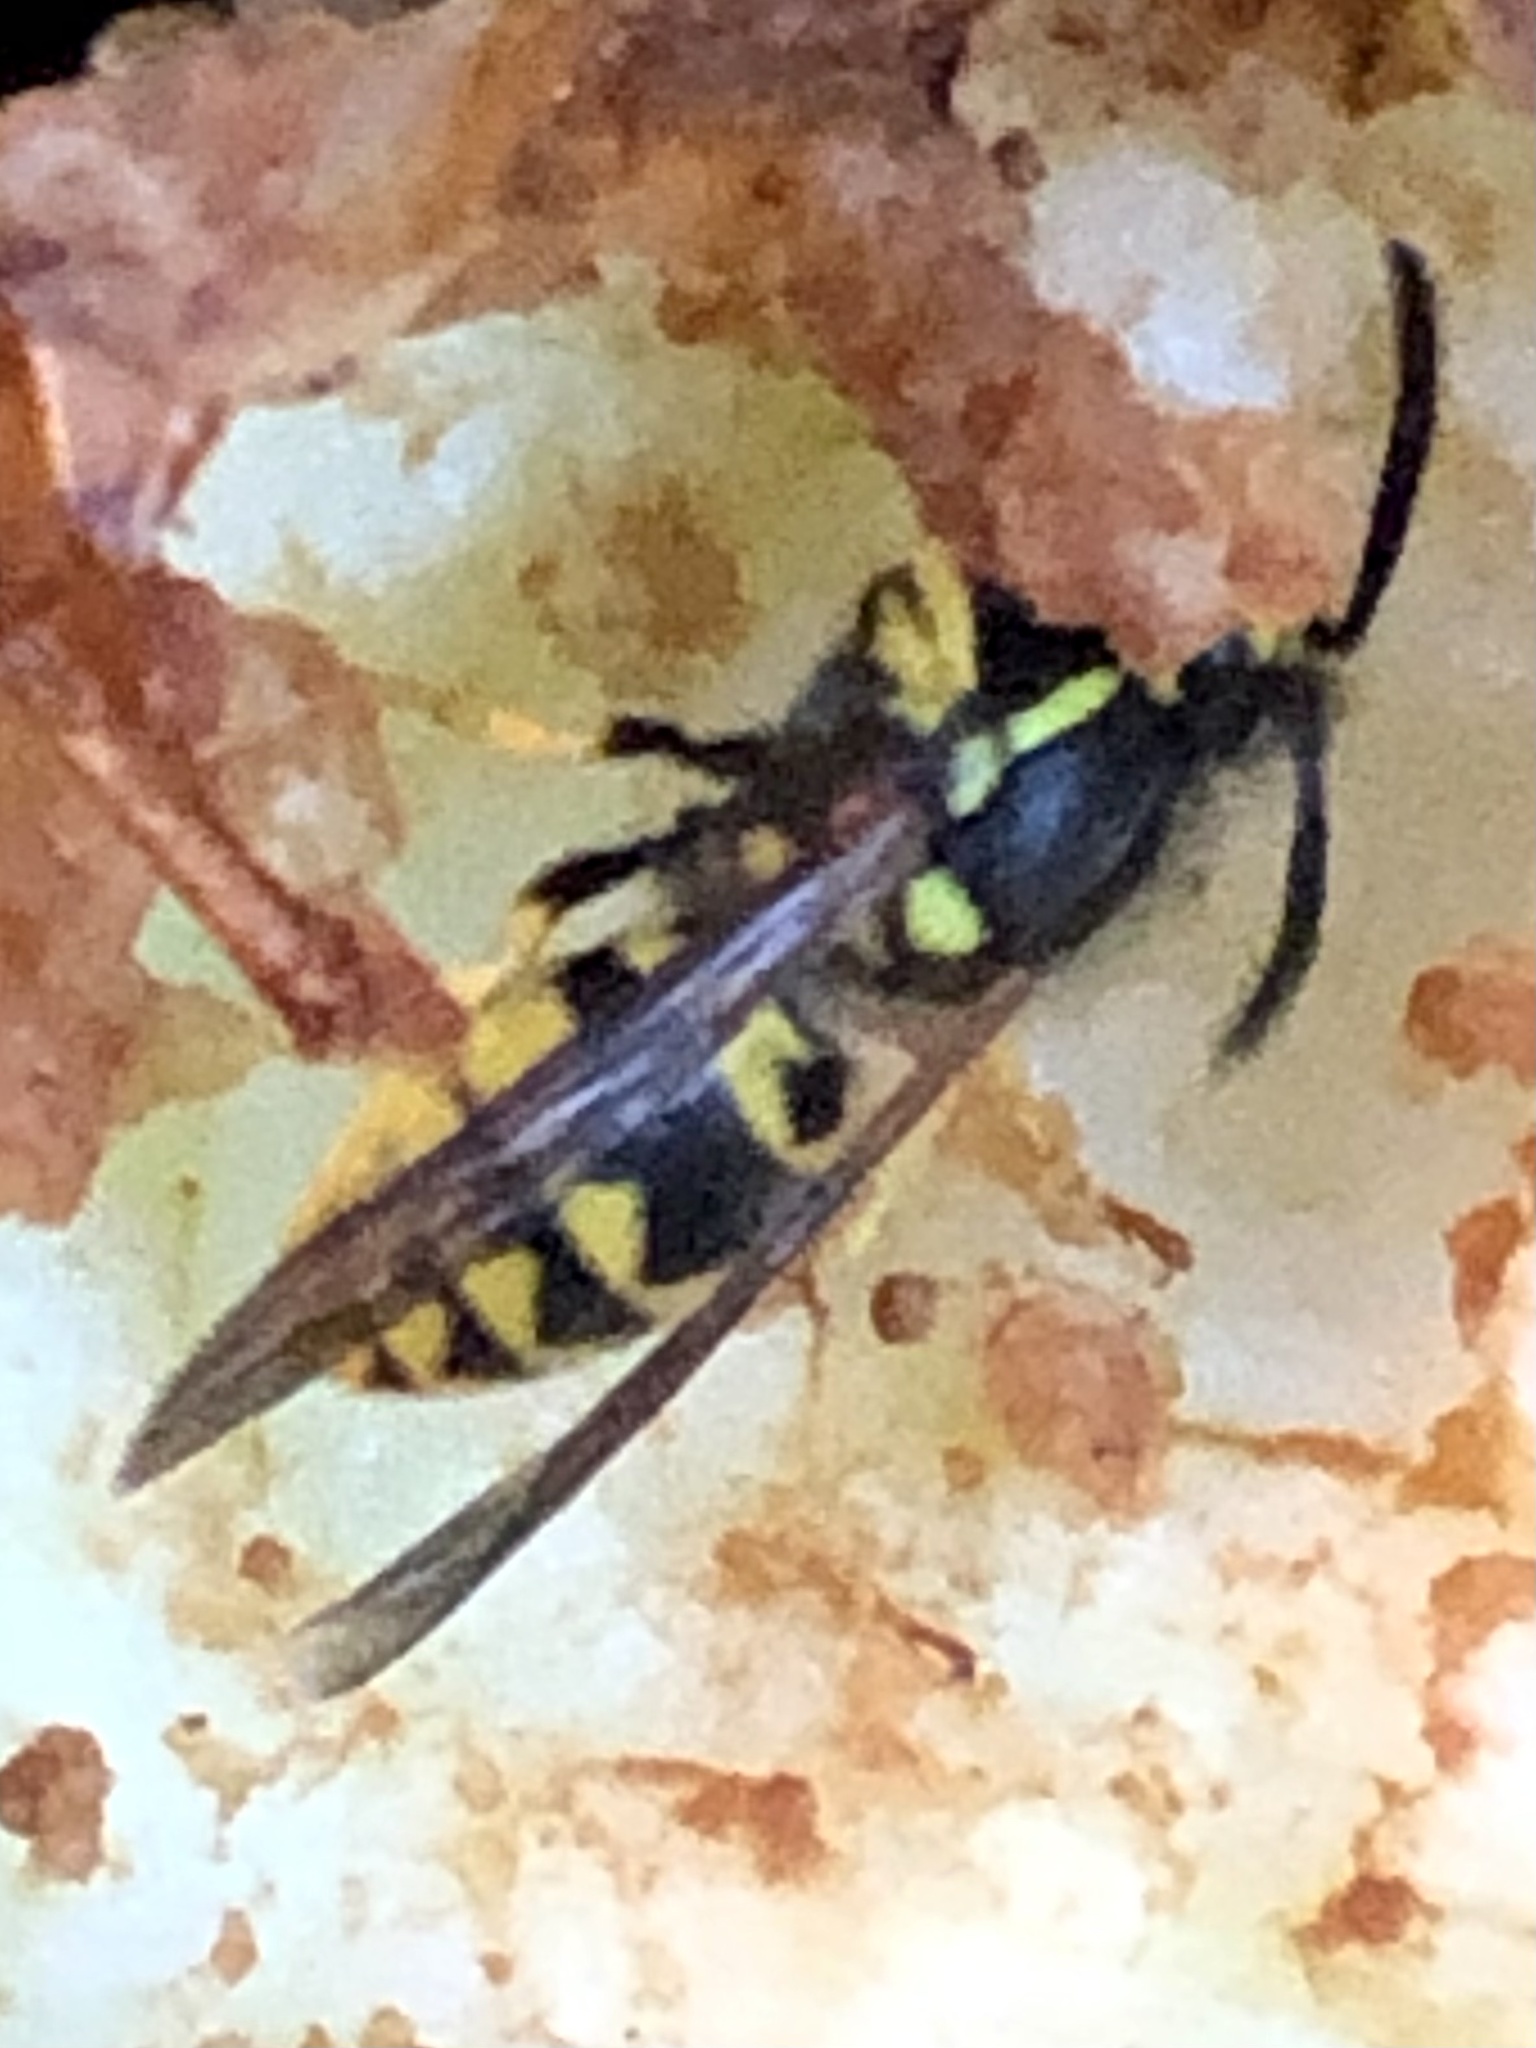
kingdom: Animalia
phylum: Arthropoda
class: Insecta
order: Hymenoptera
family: Vespidae
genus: Vespula
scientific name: Vespula germanica
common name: German wasp
